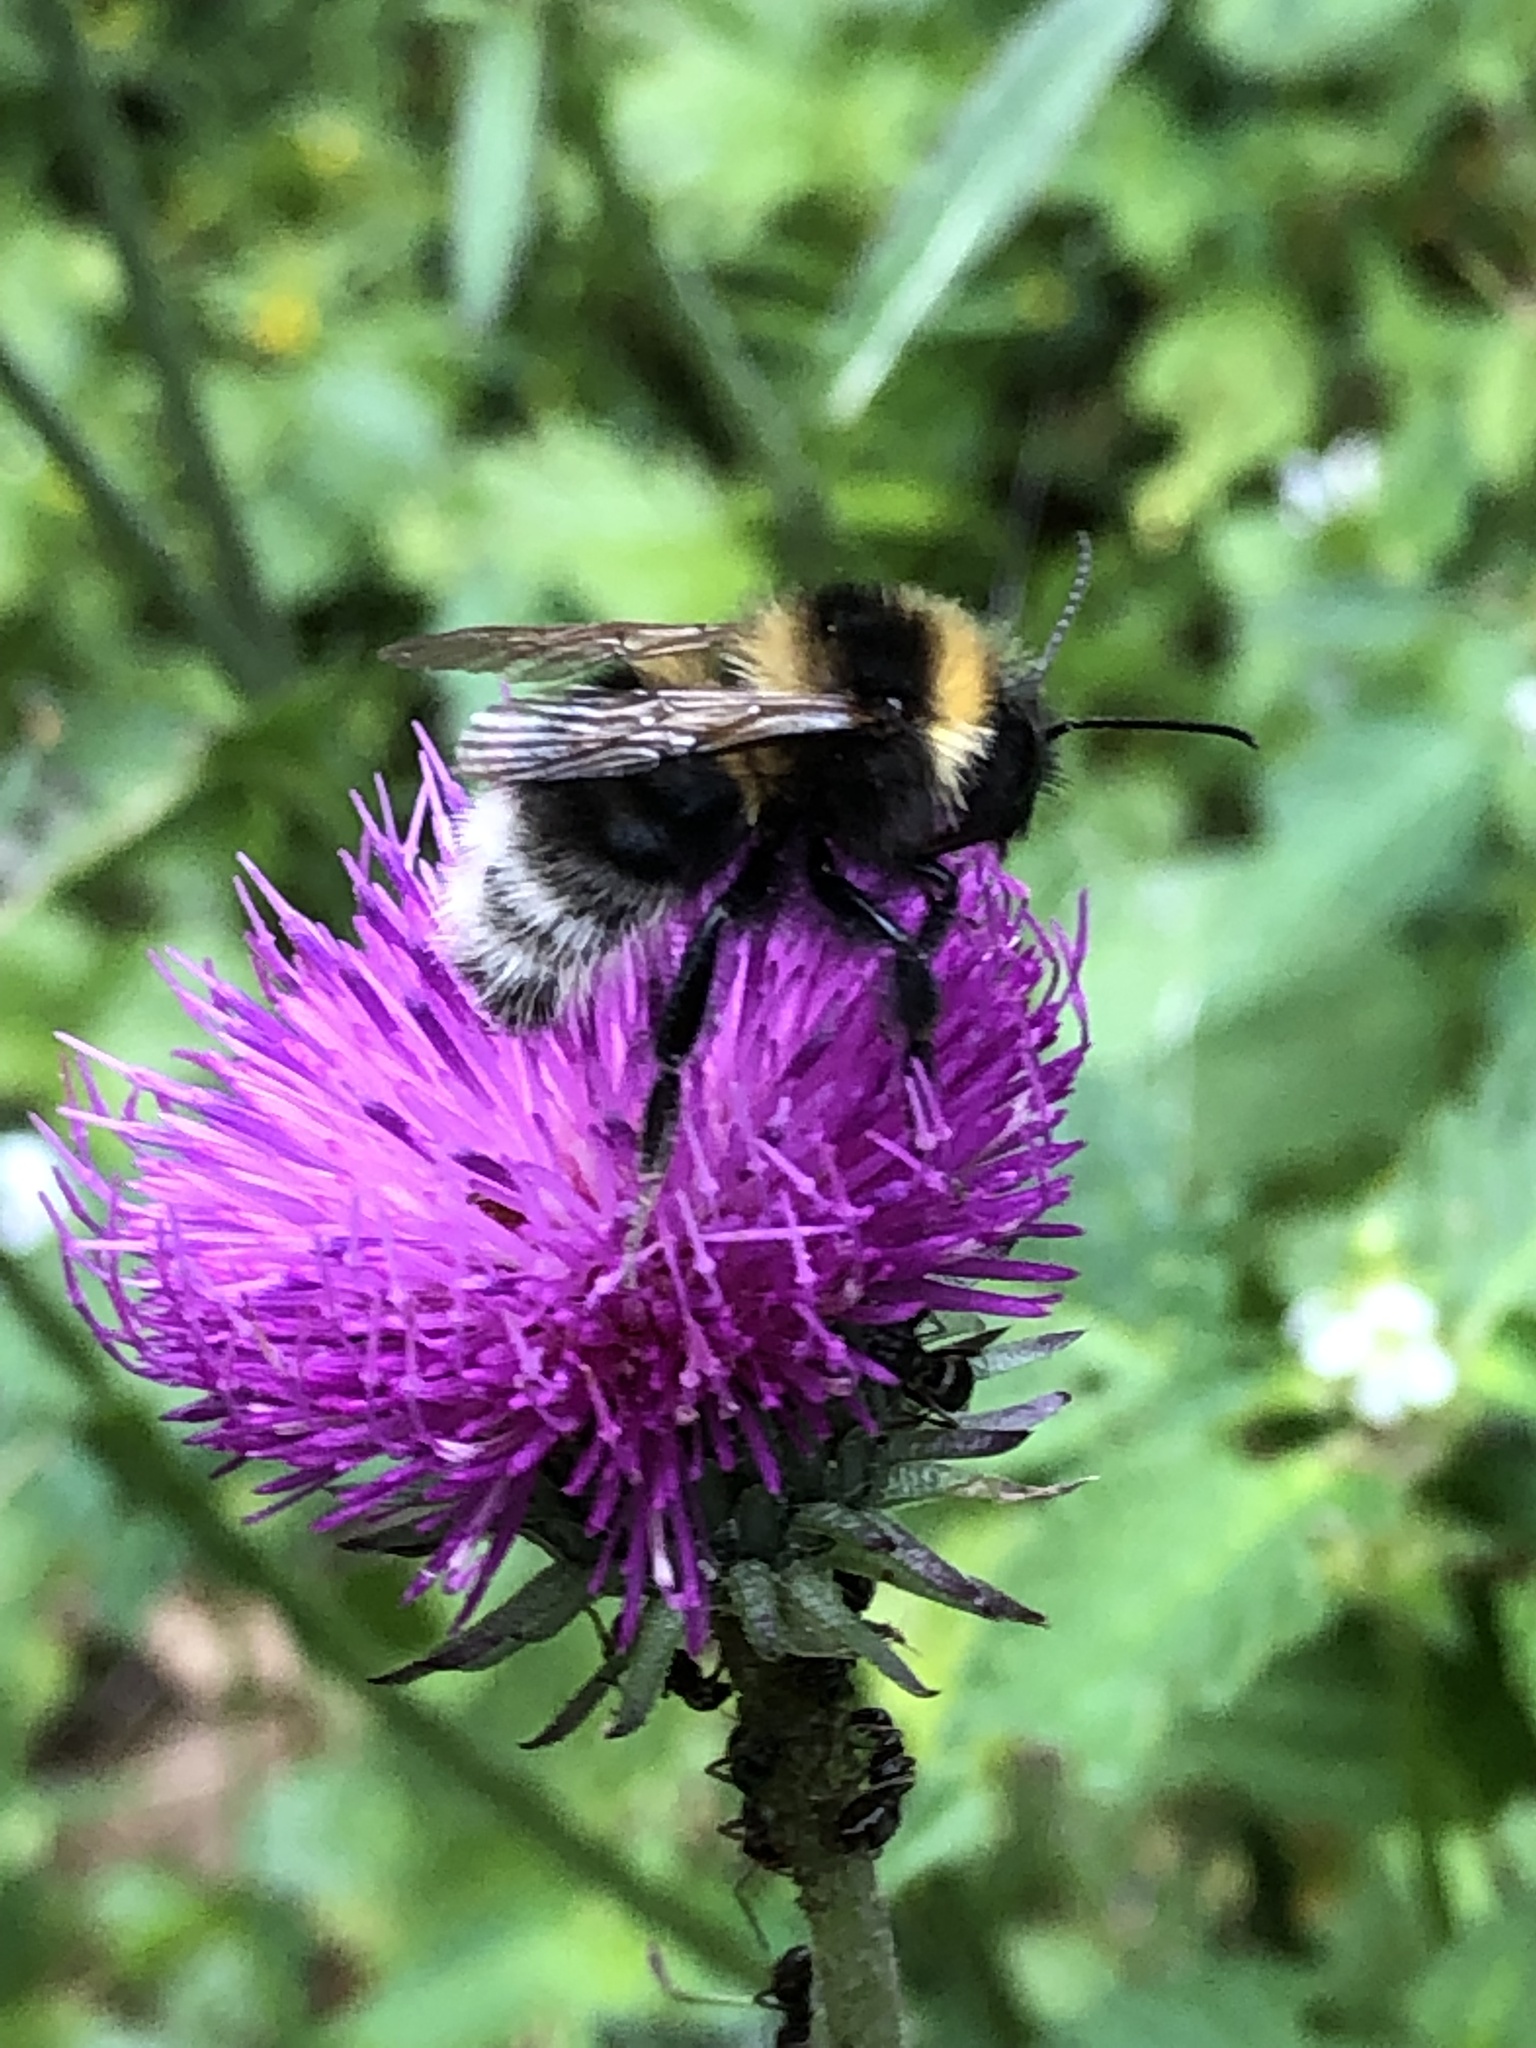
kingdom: Animalia
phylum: Arthropoda
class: Insecta
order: Hymenoptera
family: Apidae
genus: Bombus
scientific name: Bombus hortorum
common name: Garden bumblebee
